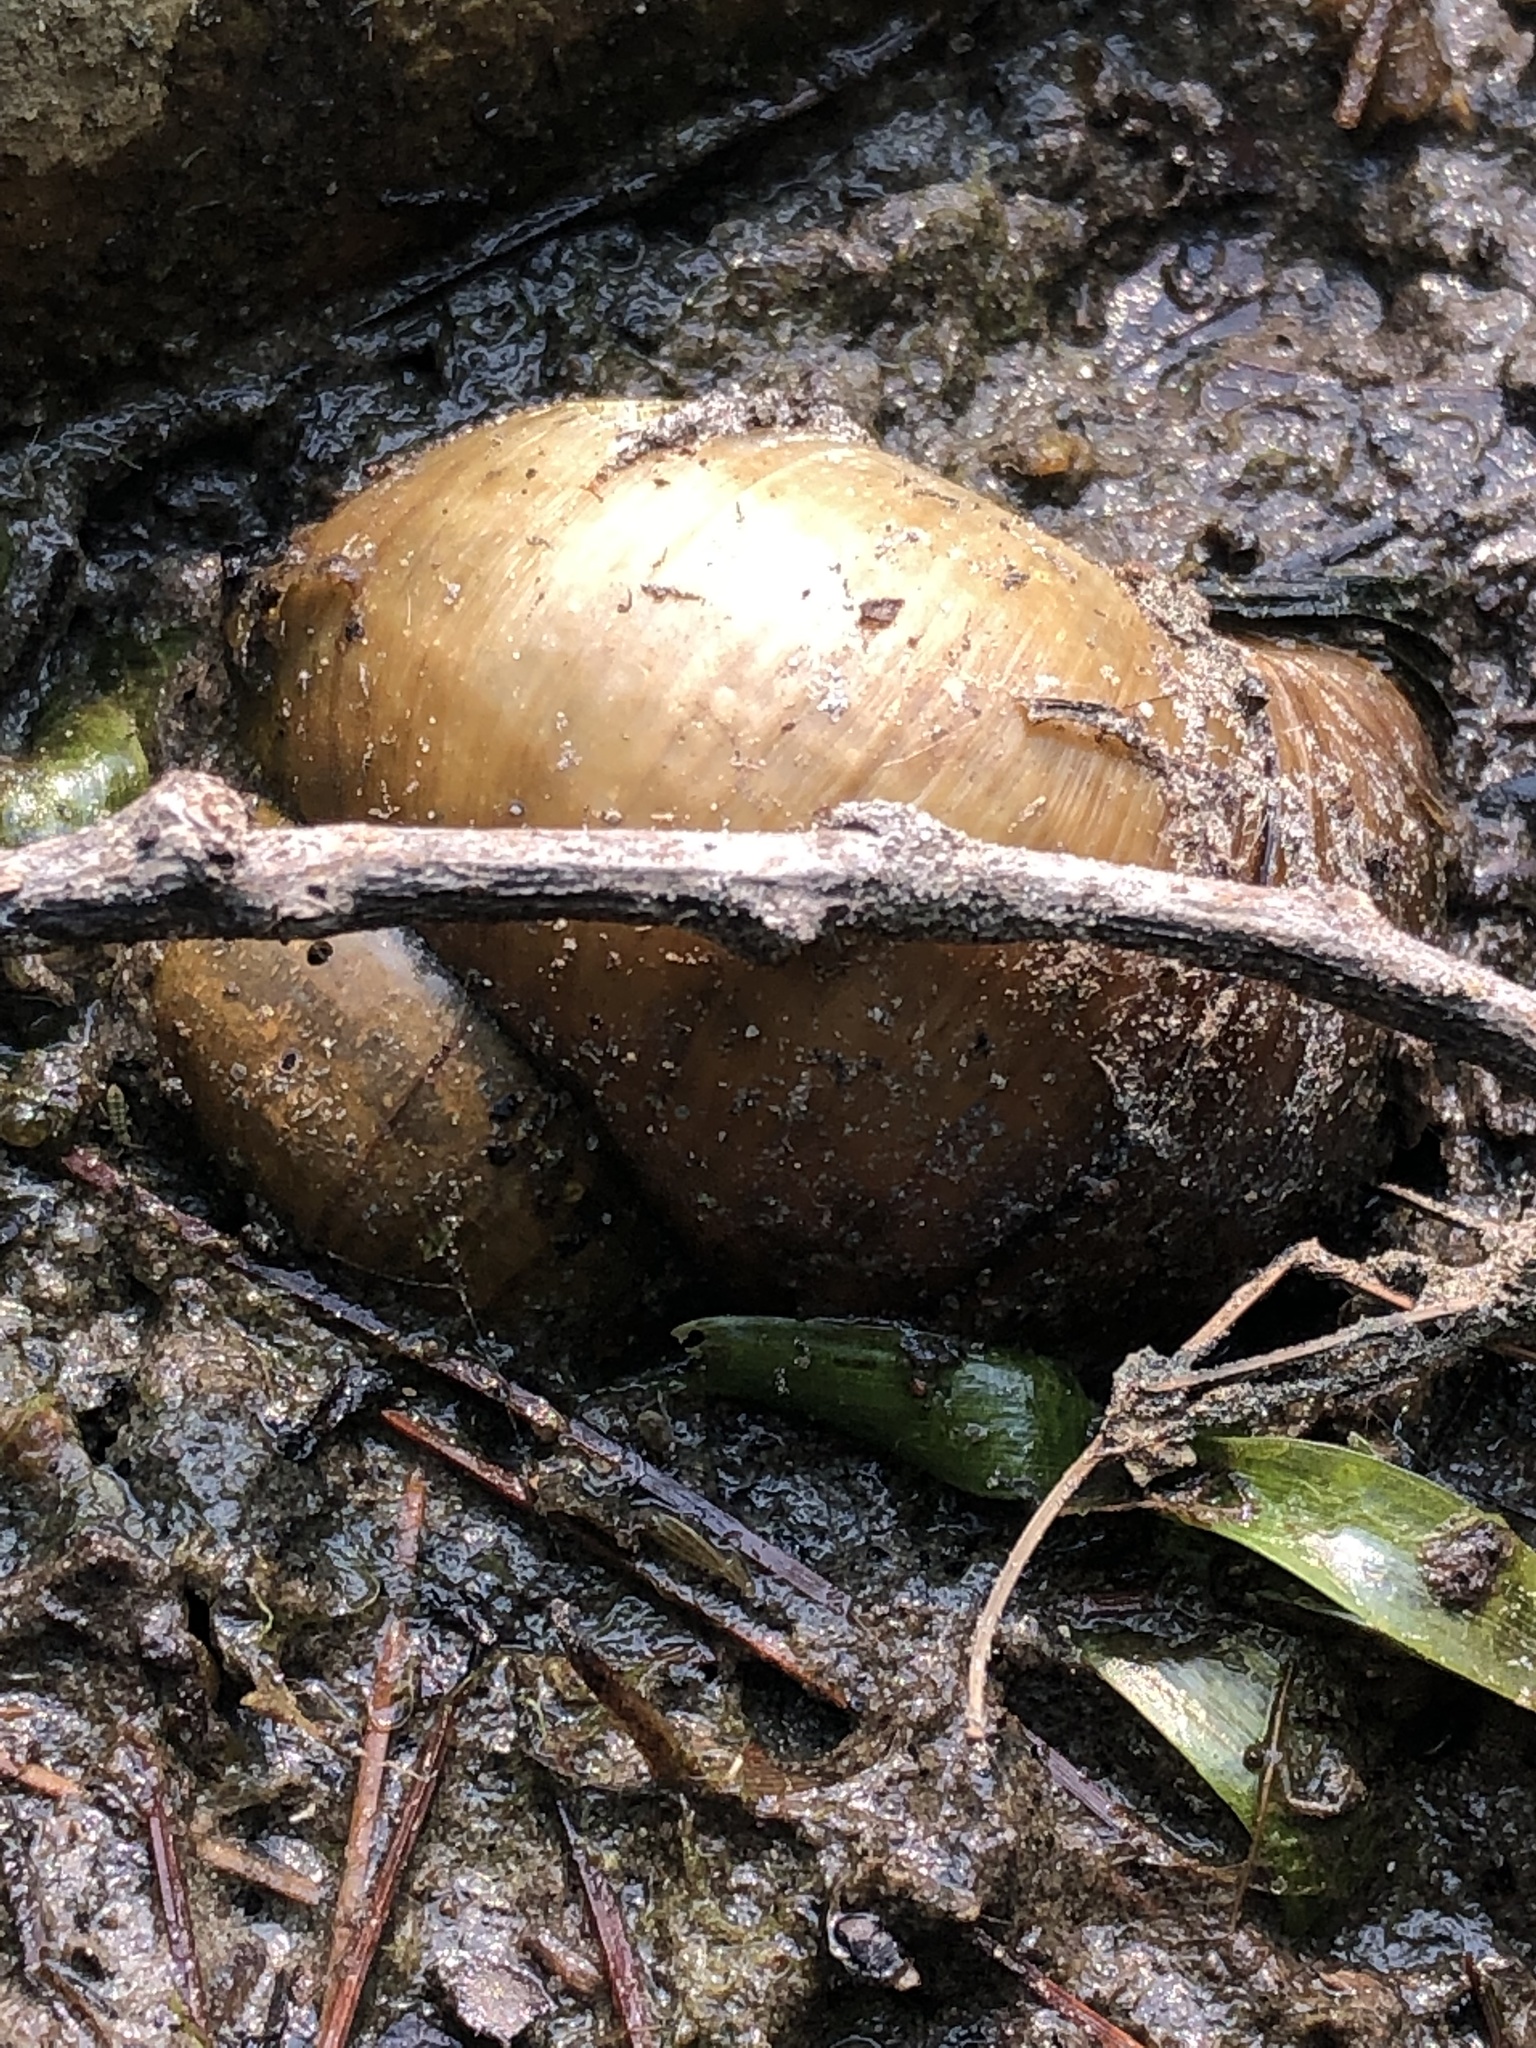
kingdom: Animalia
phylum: Mollusca
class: Gastropoda
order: Architaenioglossa
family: Viviparidae
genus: Cipangopaludina
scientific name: Cipangopaludina chinensis
